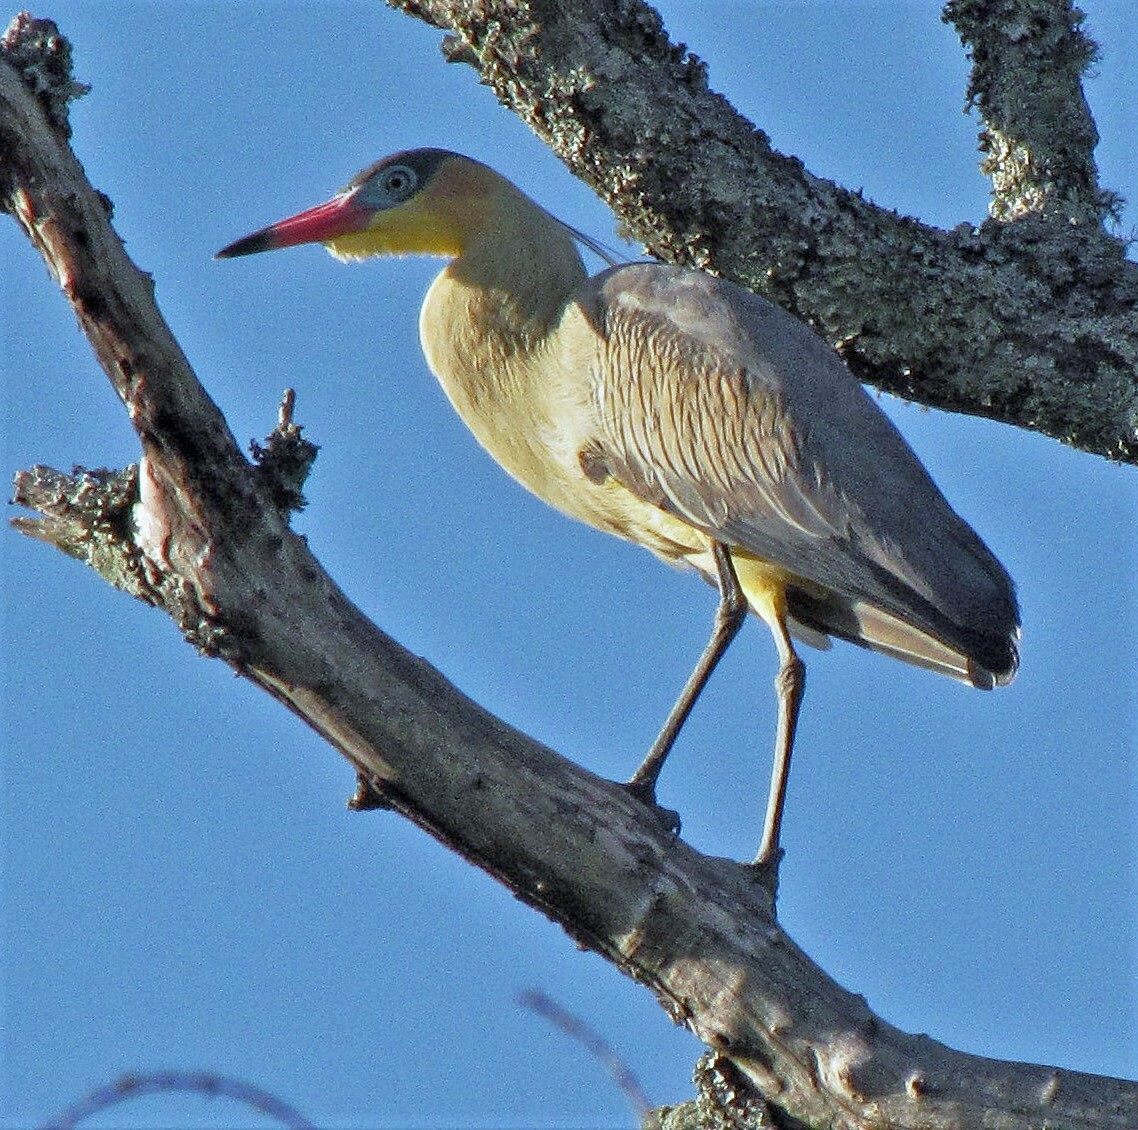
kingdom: Animalia
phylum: Chordata
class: Aves
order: Pelecaniformes
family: Ardeidae
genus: Syrigma
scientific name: Syrigma sibilatrix
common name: Whistling heron
